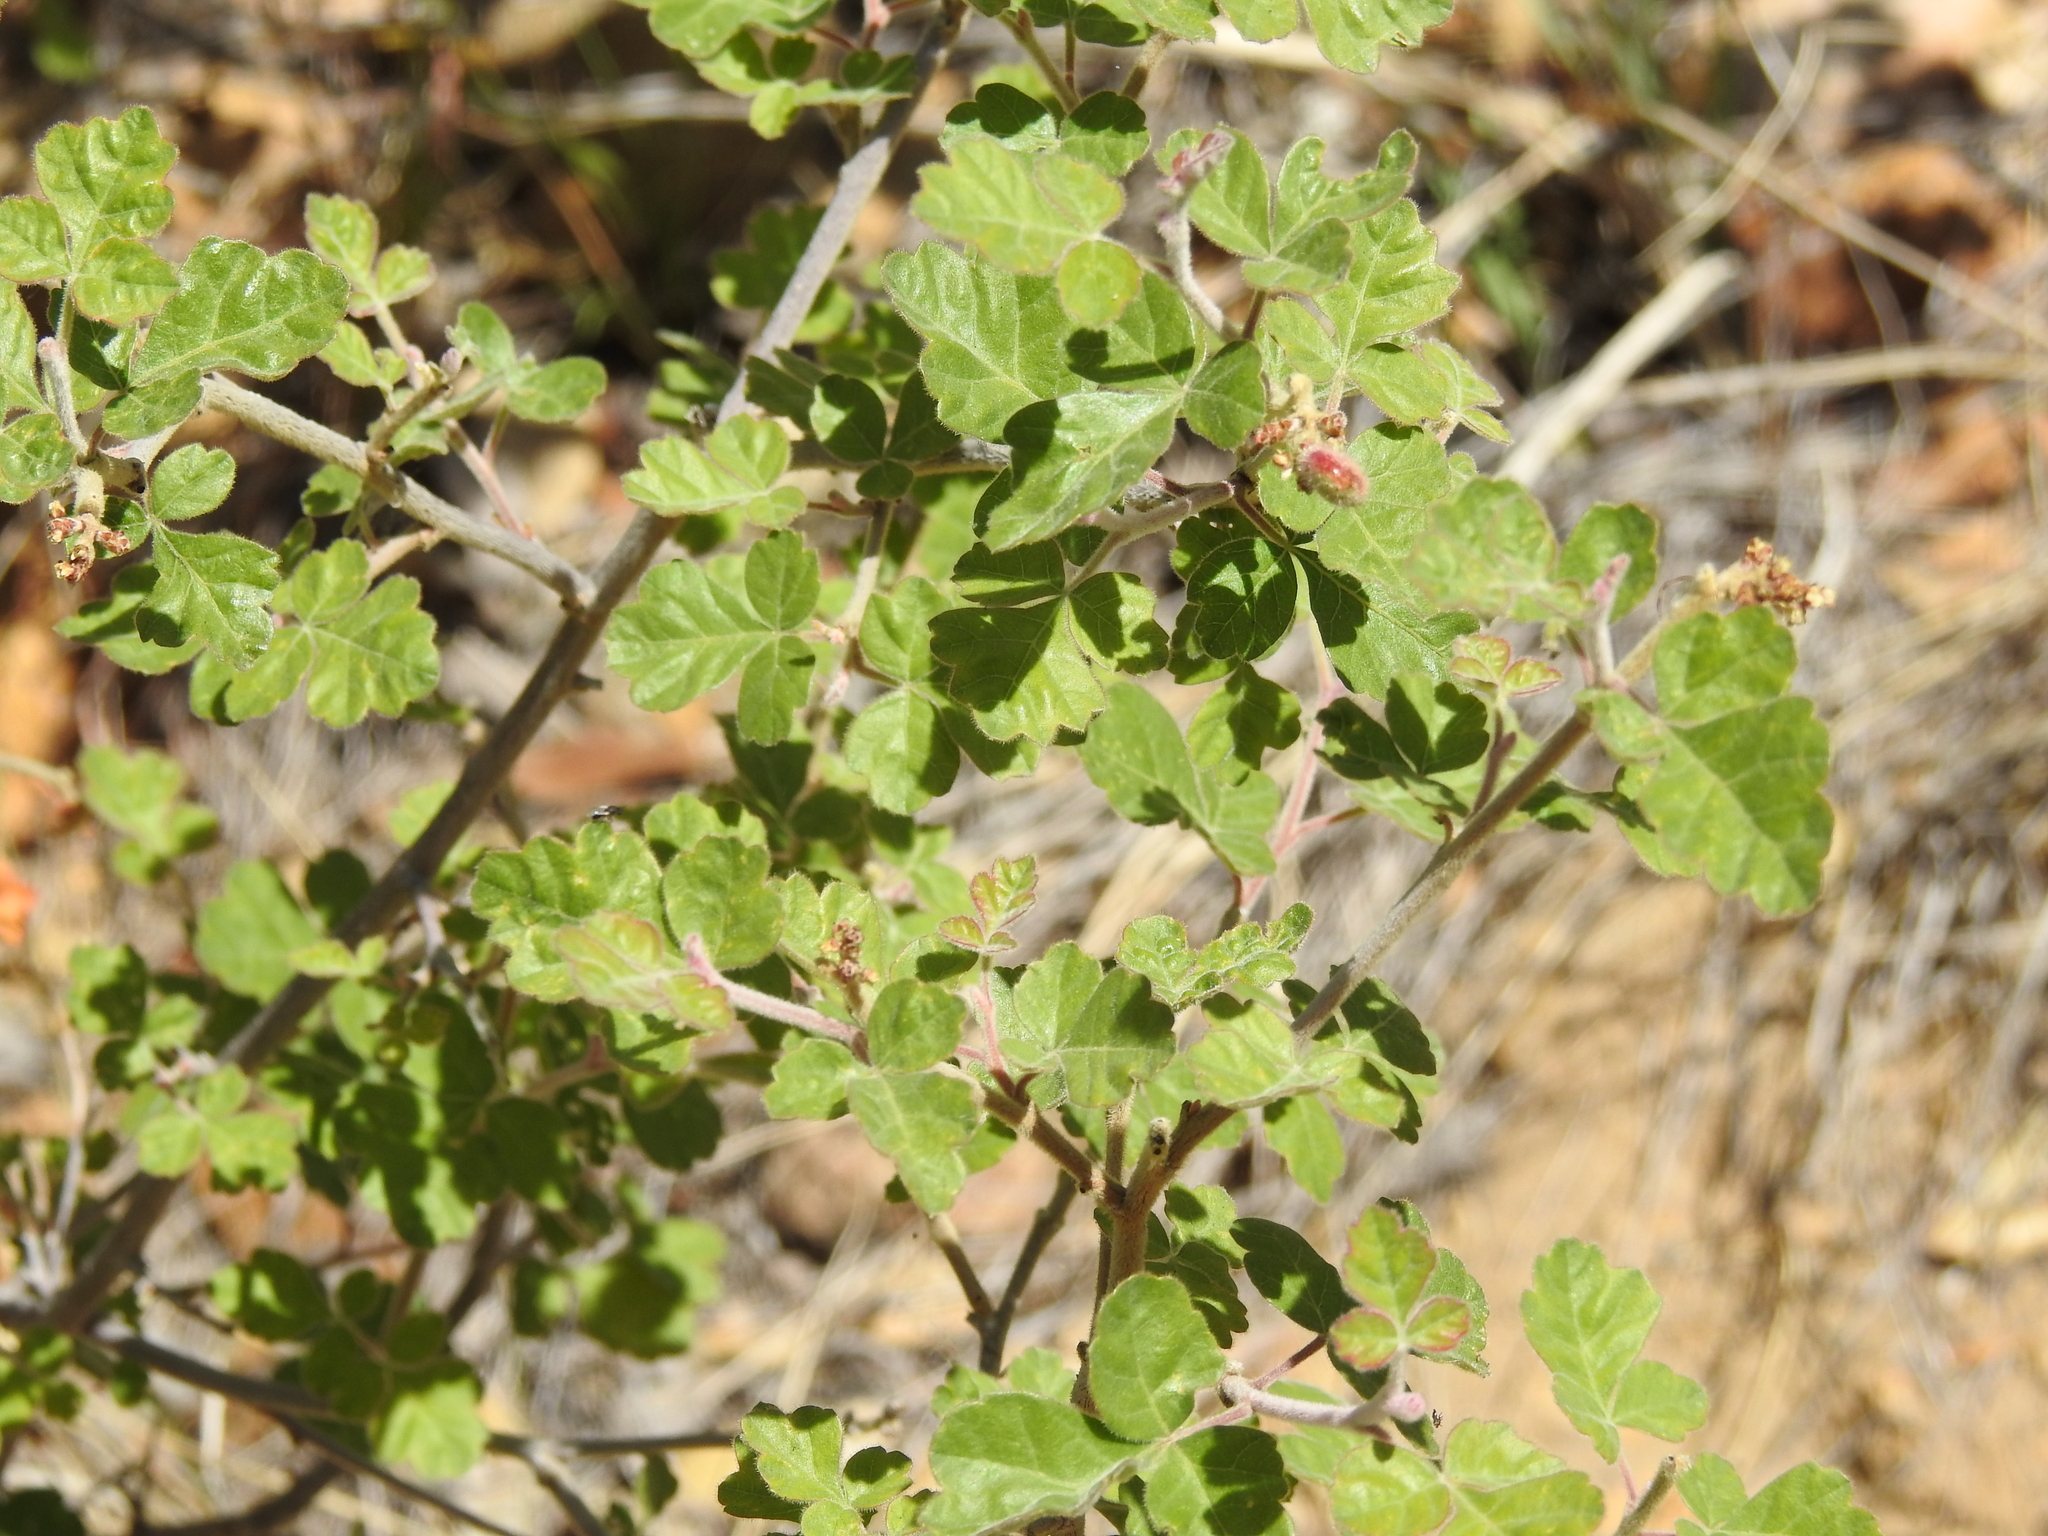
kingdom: Plantae
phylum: Tracheophyta
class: Magnoliopsida
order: Sapindales
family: Anacardiaceae
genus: Rhus
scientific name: Rhus aromatica
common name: Aromatic sumac
